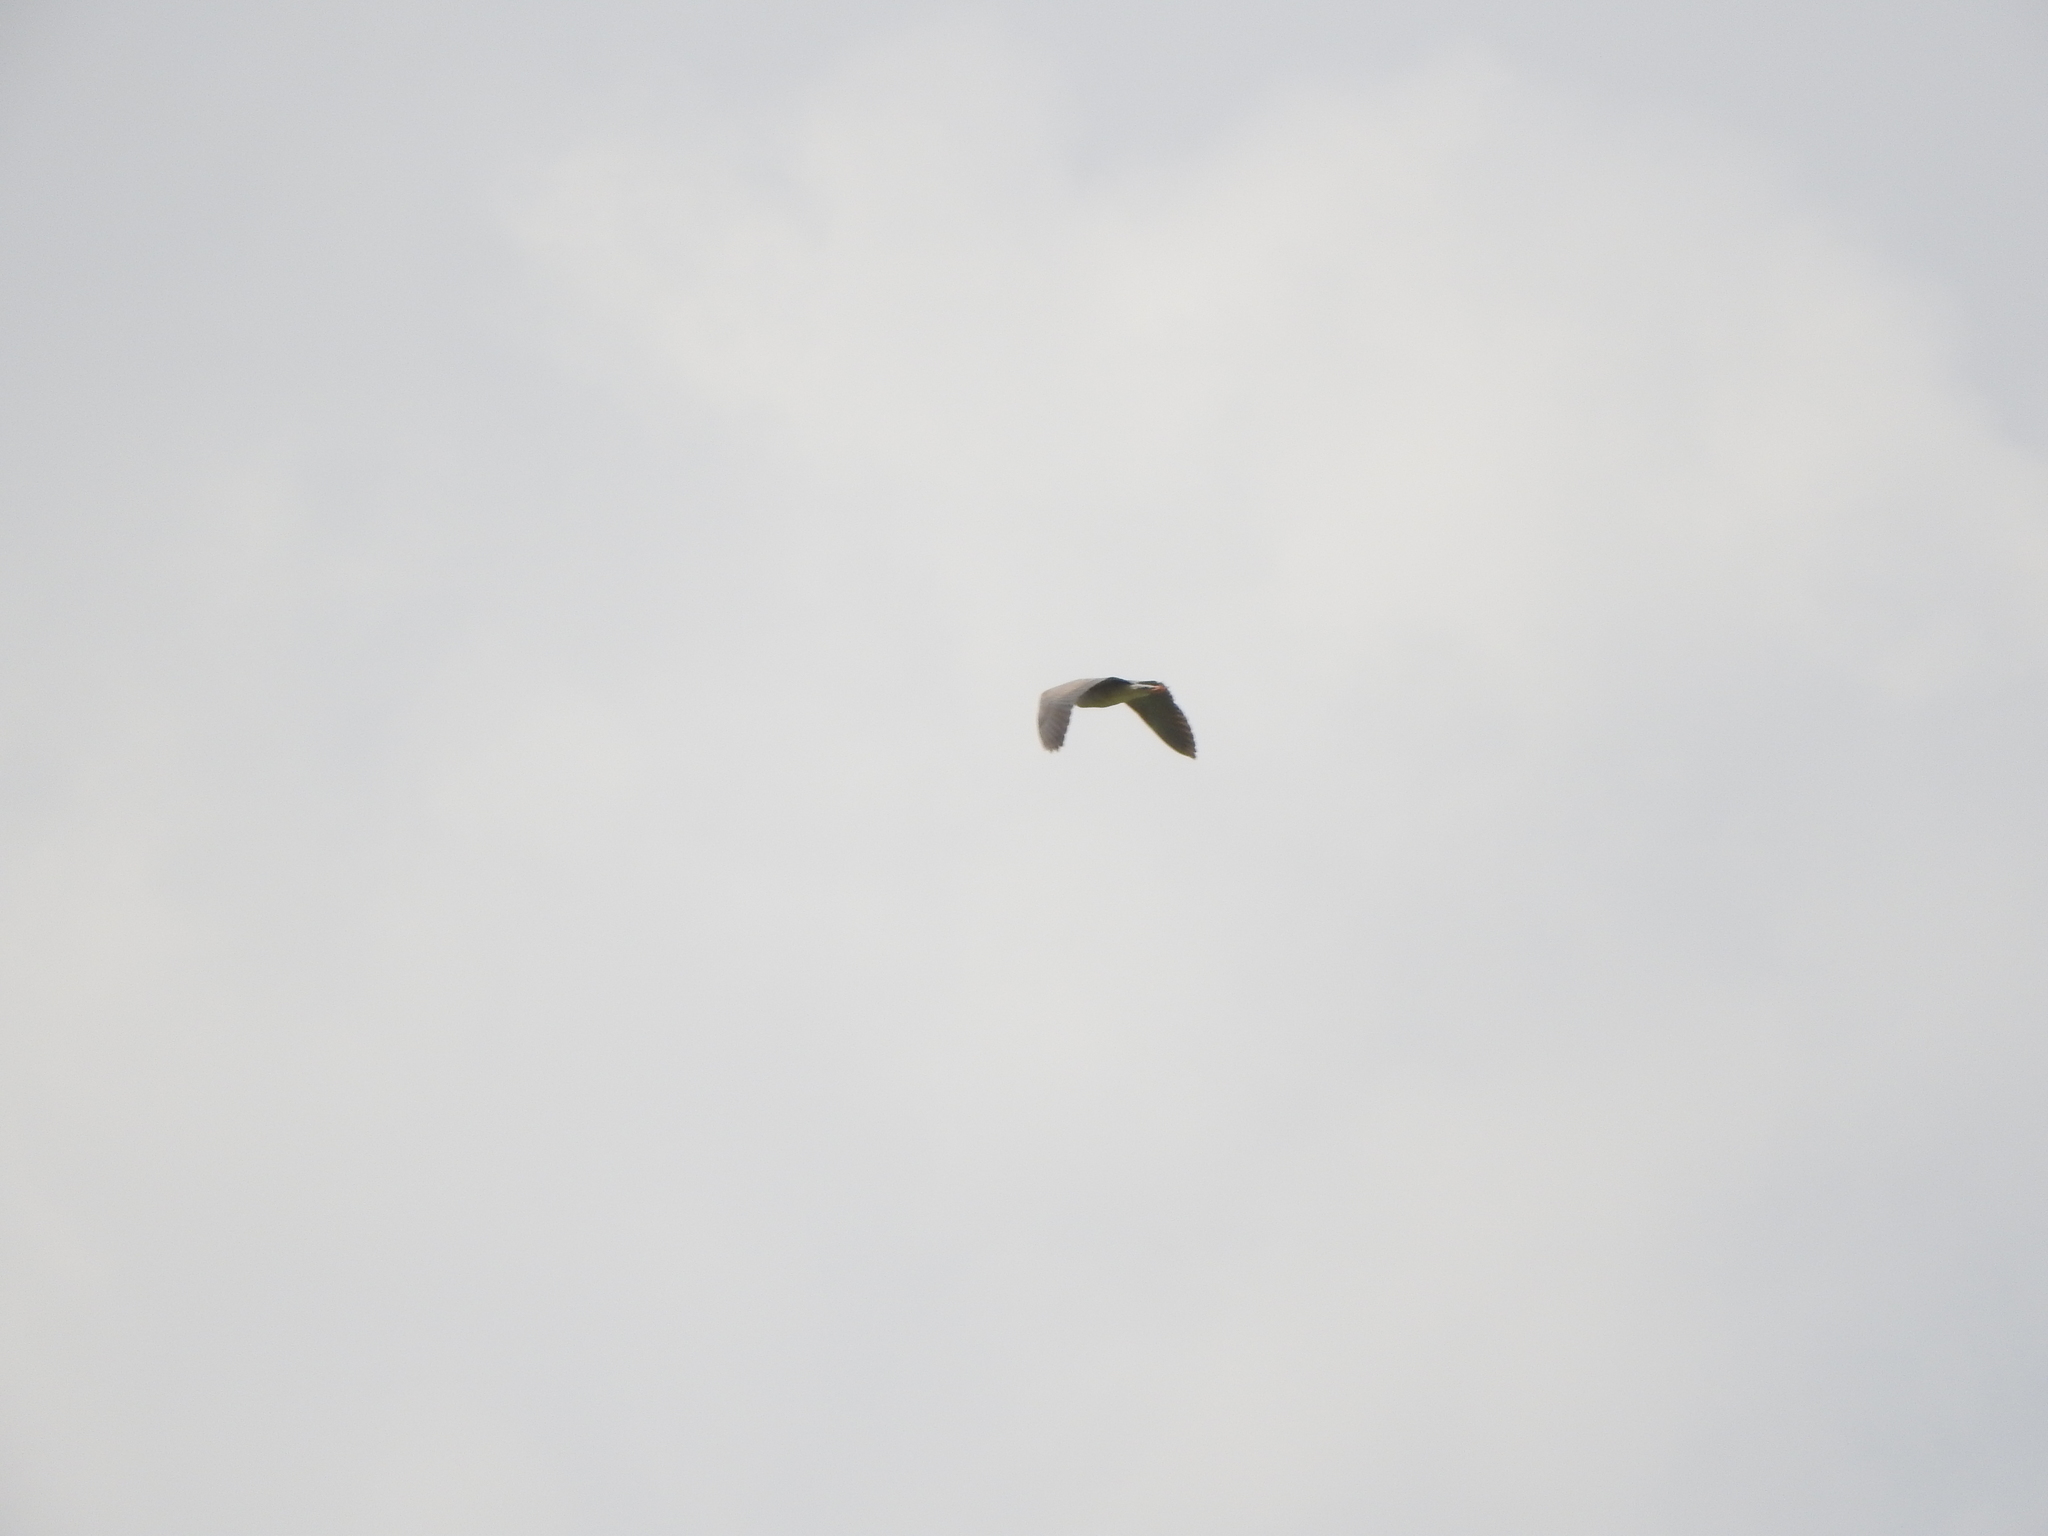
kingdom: Animalia
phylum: Chordata
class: Aves
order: Pelecaniformes
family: Ardeidae
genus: Ardea
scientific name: Ardea herodias
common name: Great blue heron
